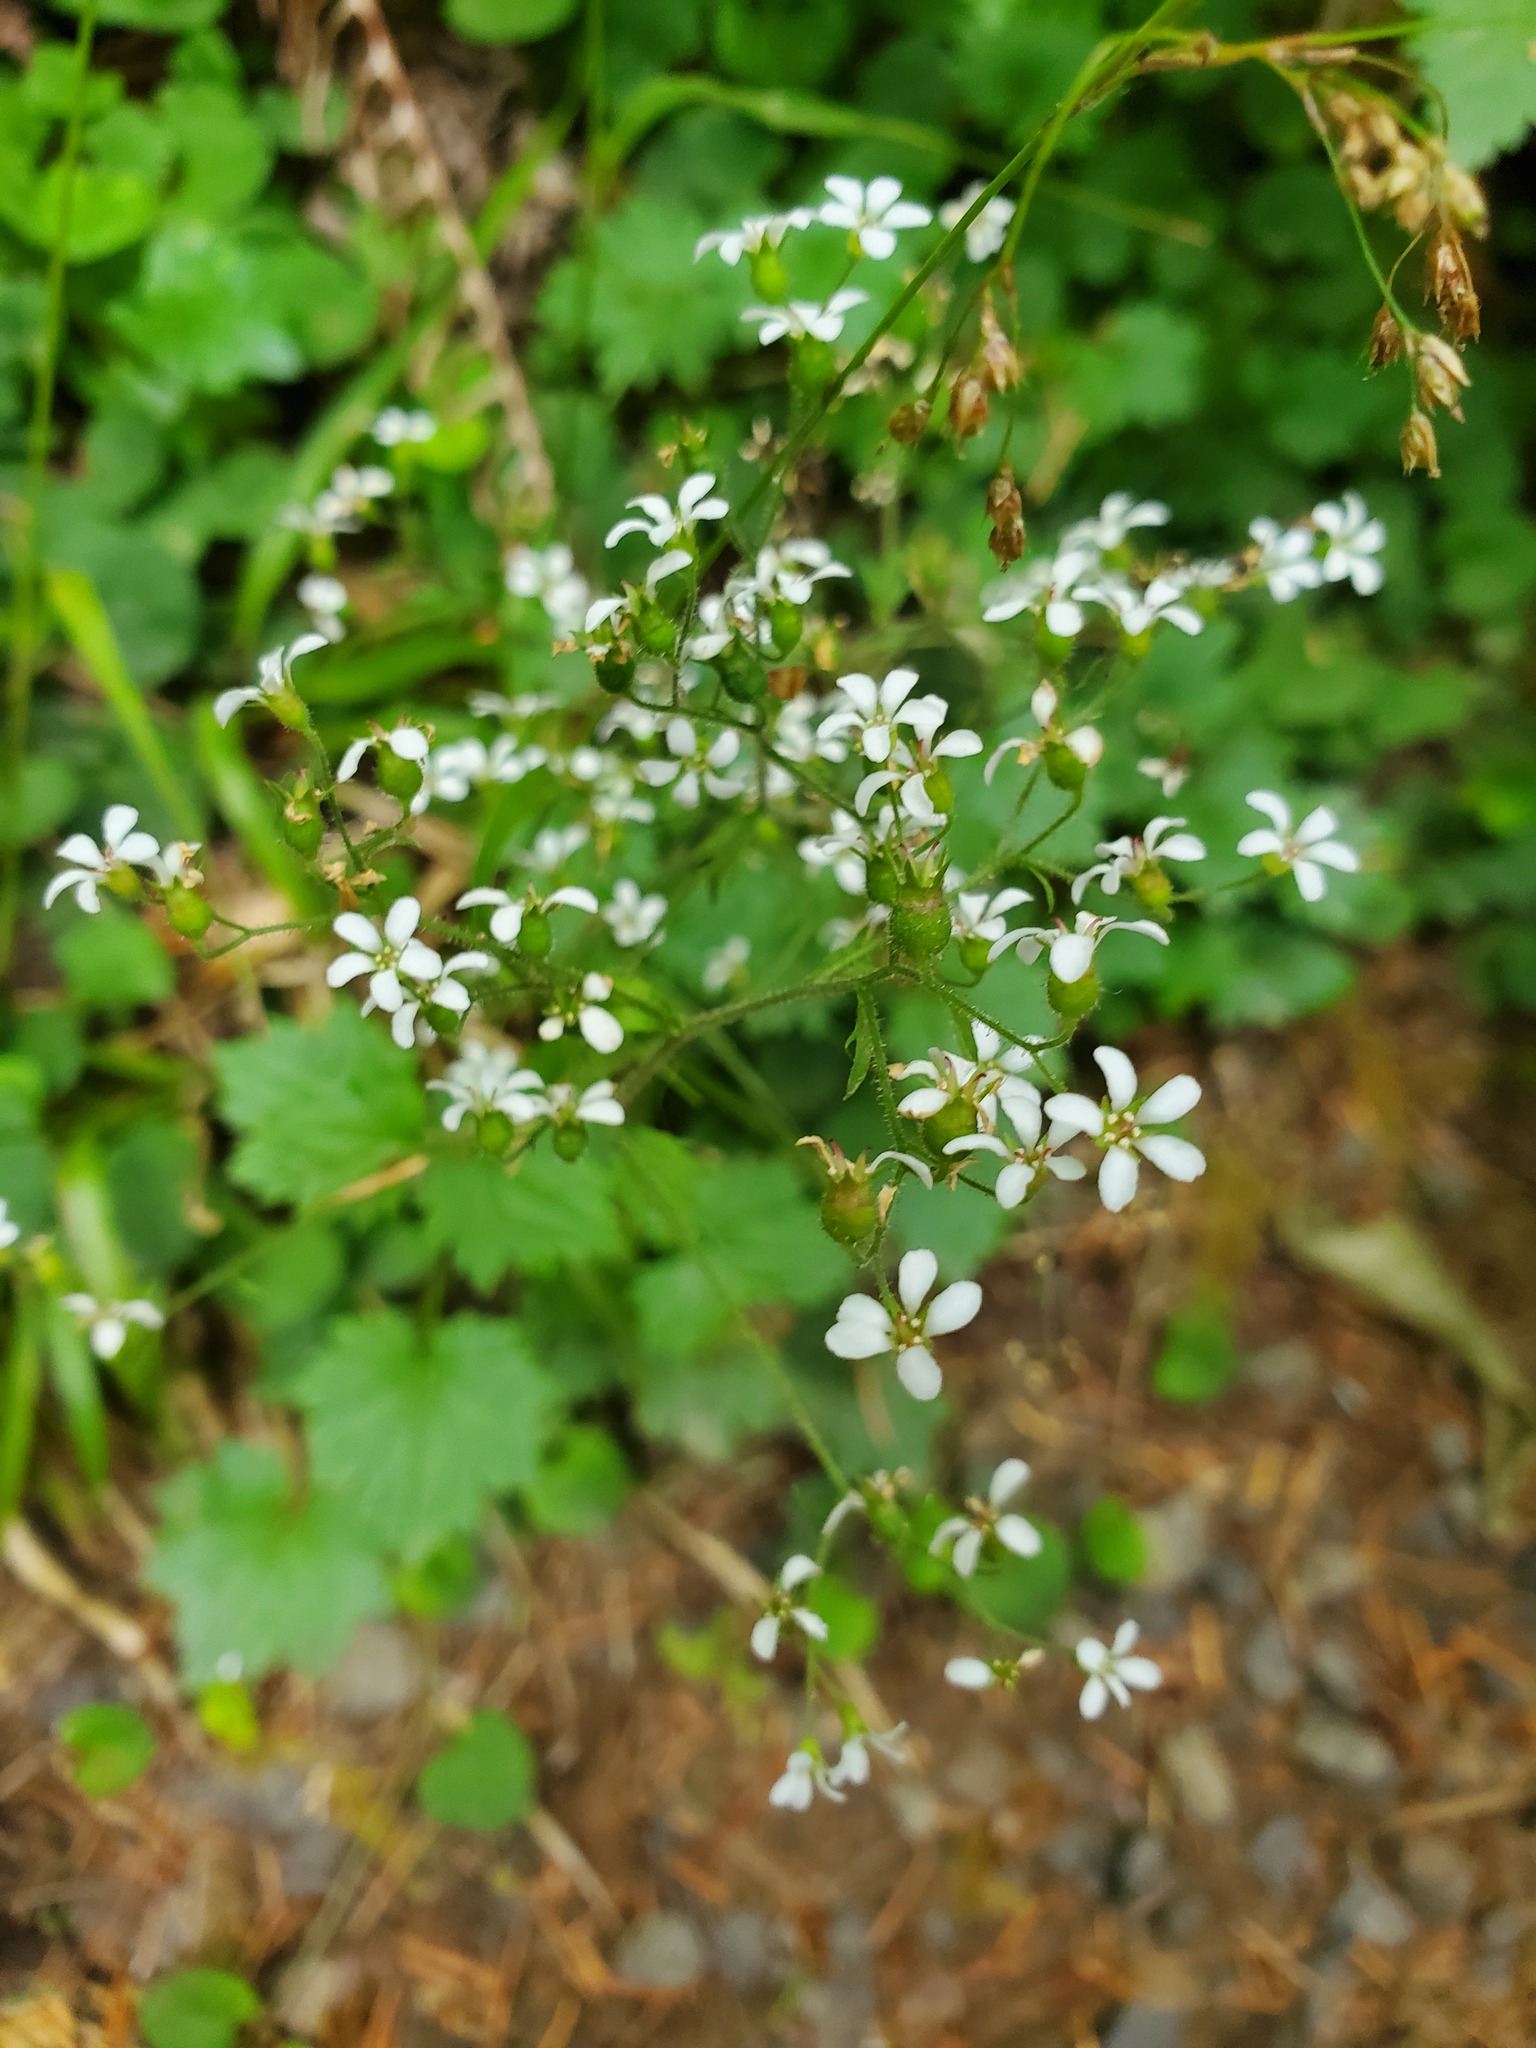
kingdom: Plantae
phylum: Tracheophyta
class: Magnoliopsida
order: Saxifragales
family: Saxifragaceae
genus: Boykinia
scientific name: Boykinia occidentalis
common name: Coast boykinia
